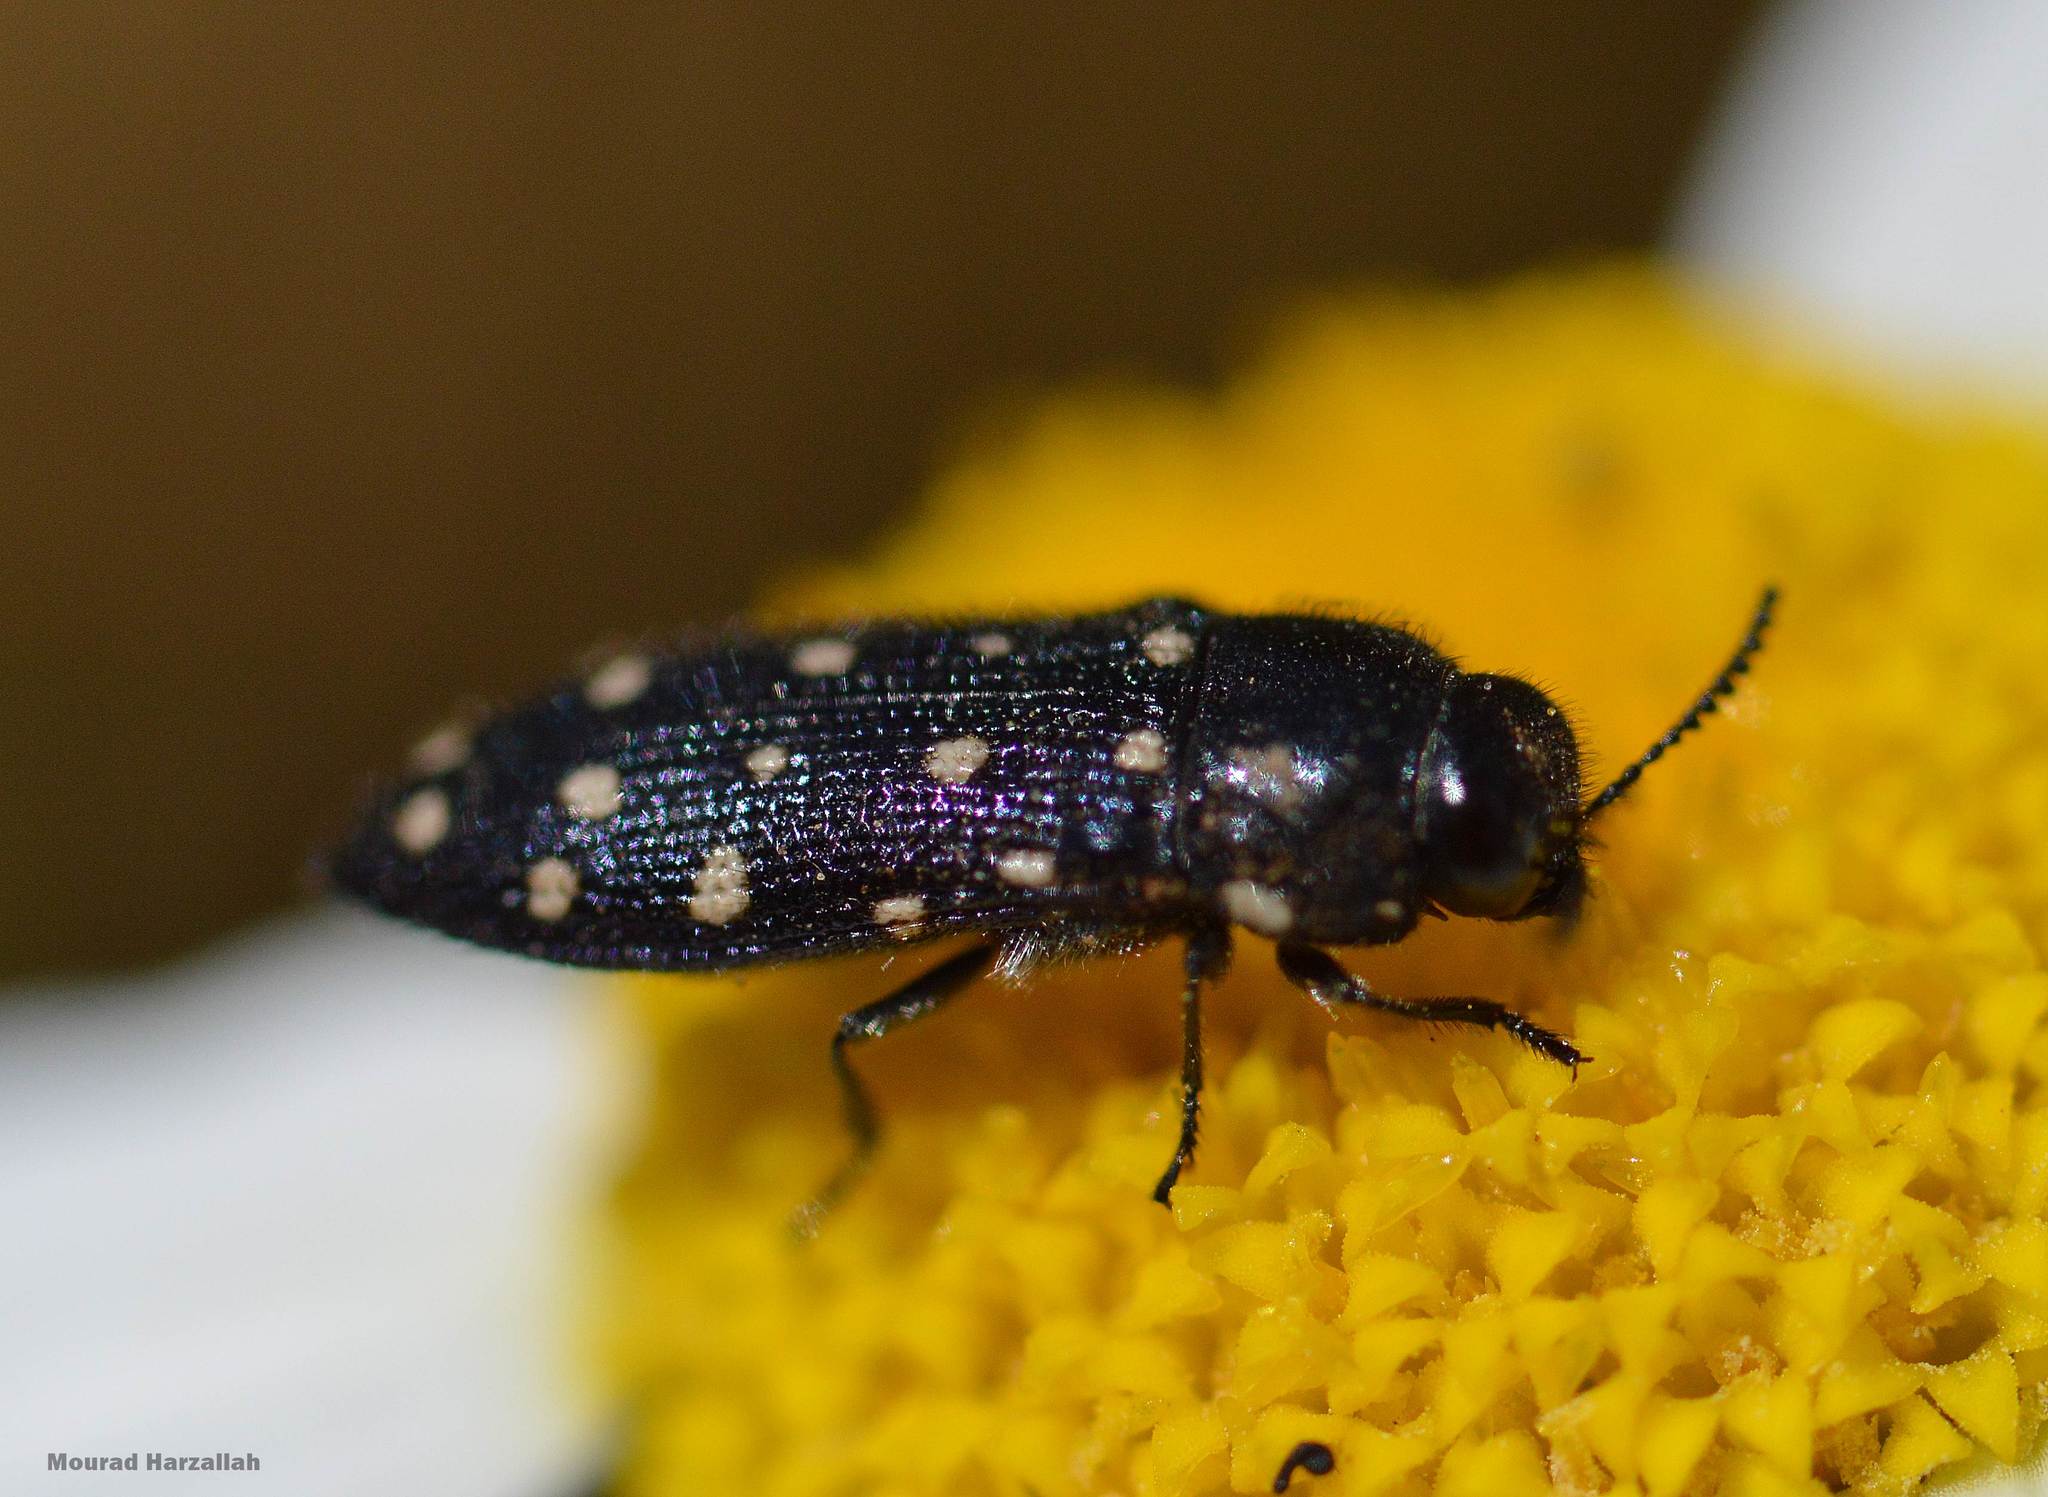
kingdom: Animalia
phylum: Arthropoda
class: Insecta
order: Coleoptera
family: Buprestidae
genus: Acmaeodera
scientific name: Acmaeodera degener
